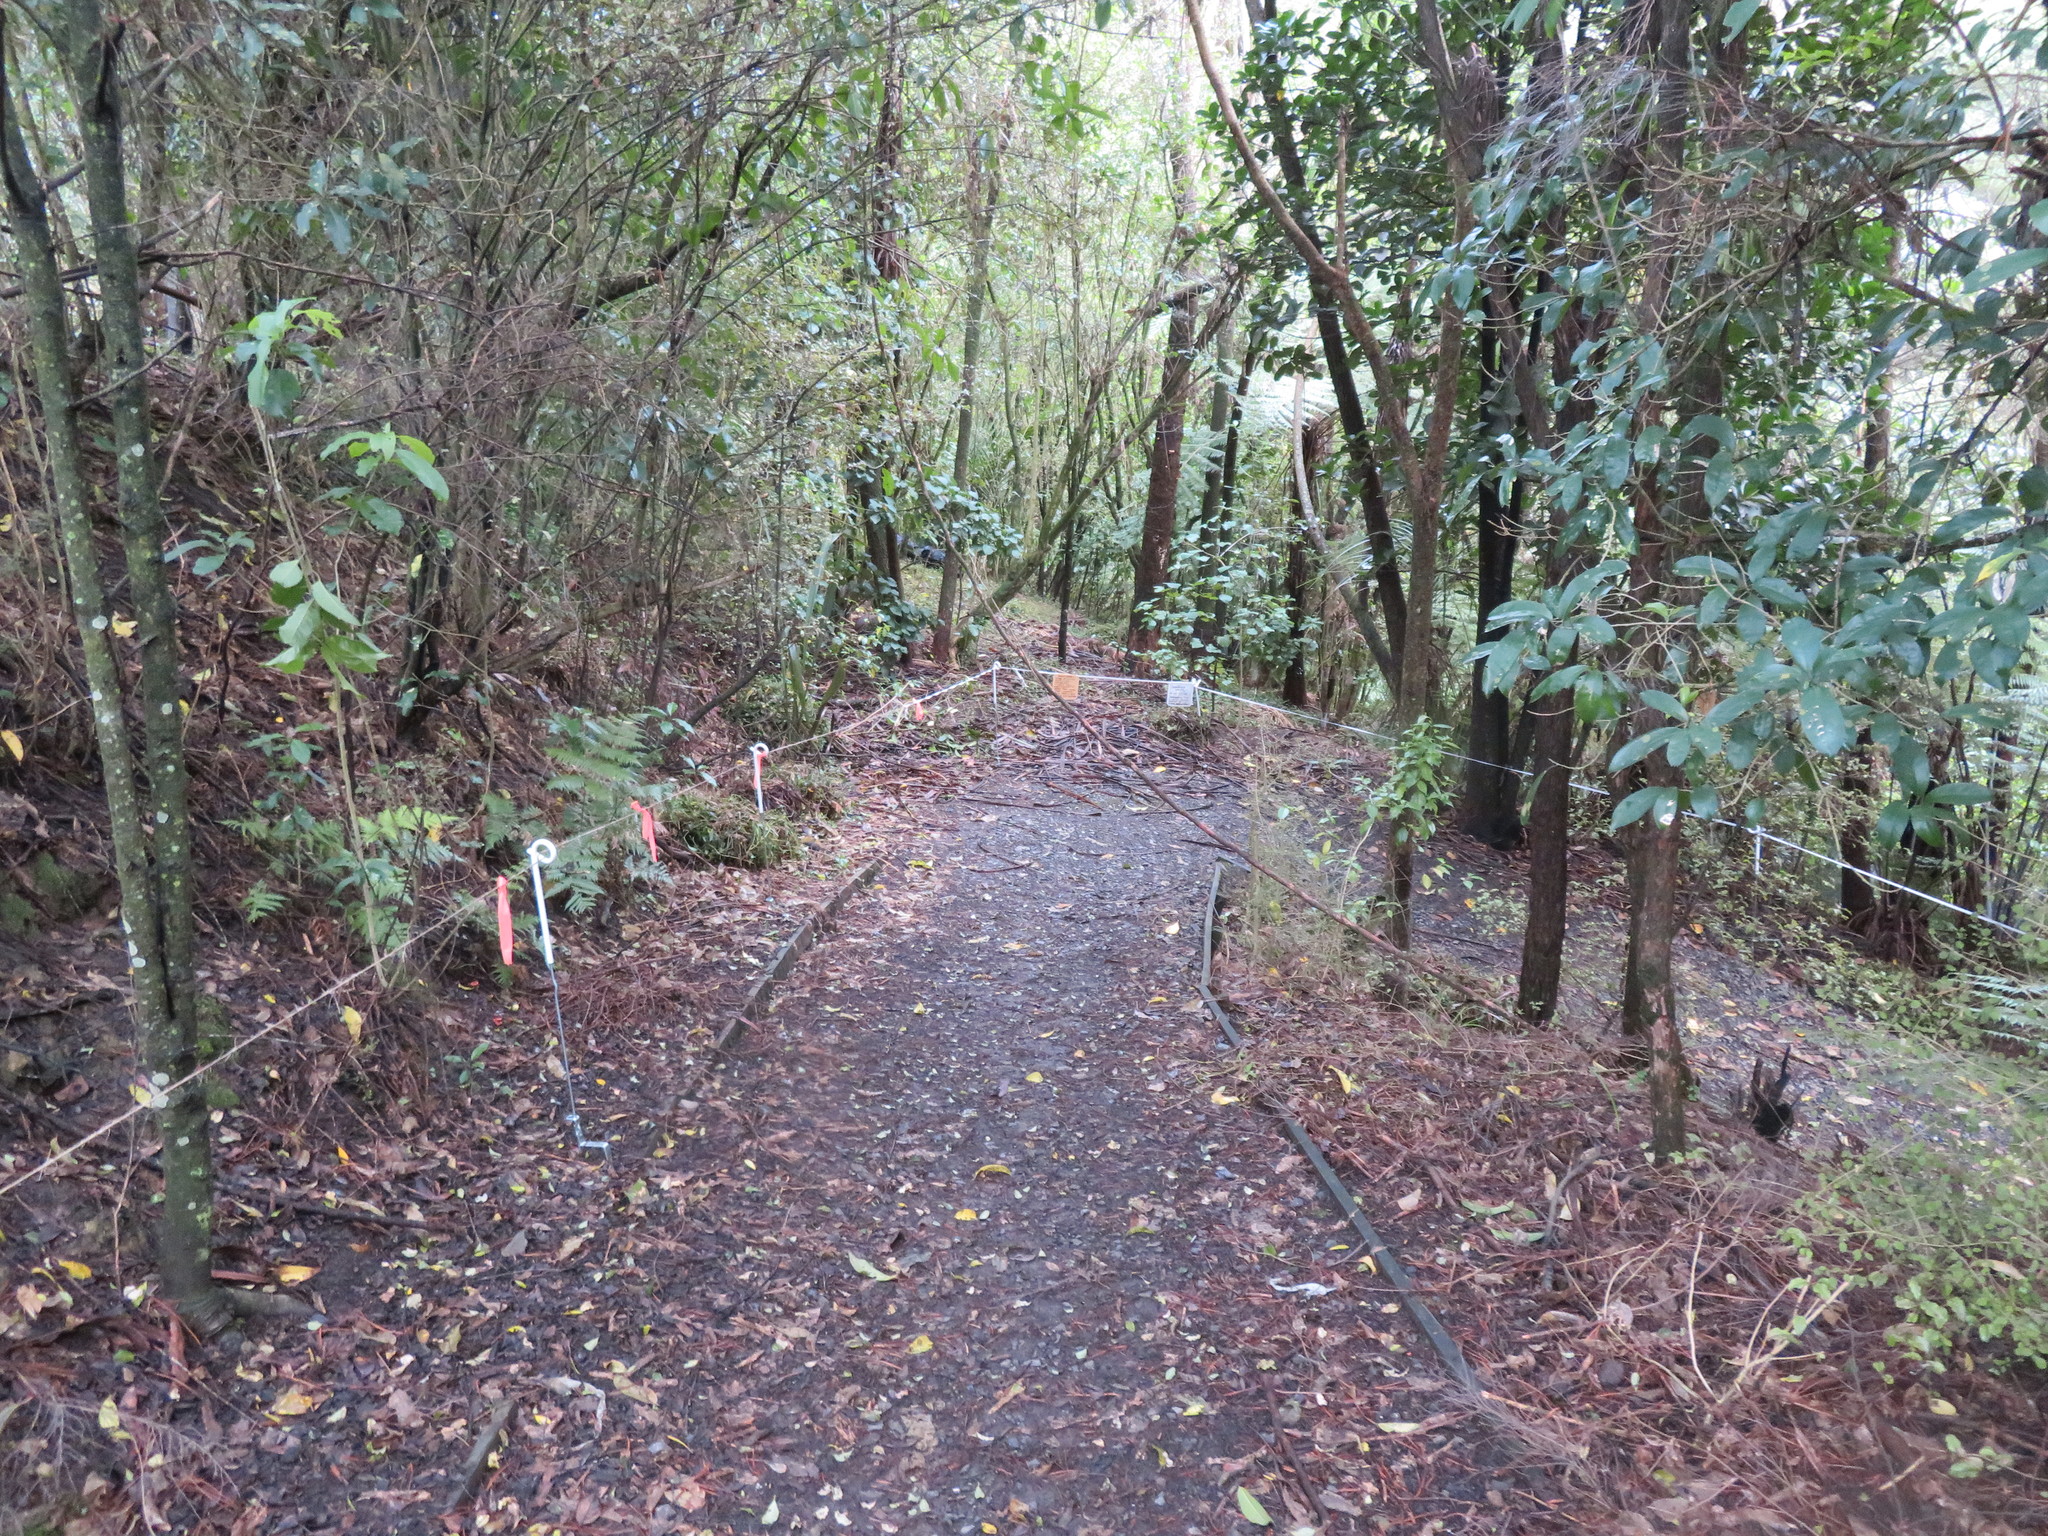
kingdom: Plantae
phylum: Tracheophyta
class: Magnoliopsida
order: Malpighiales
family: Violaceae
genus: Melicytus
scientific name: Melicytus ramiflorus
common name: Mahoe
